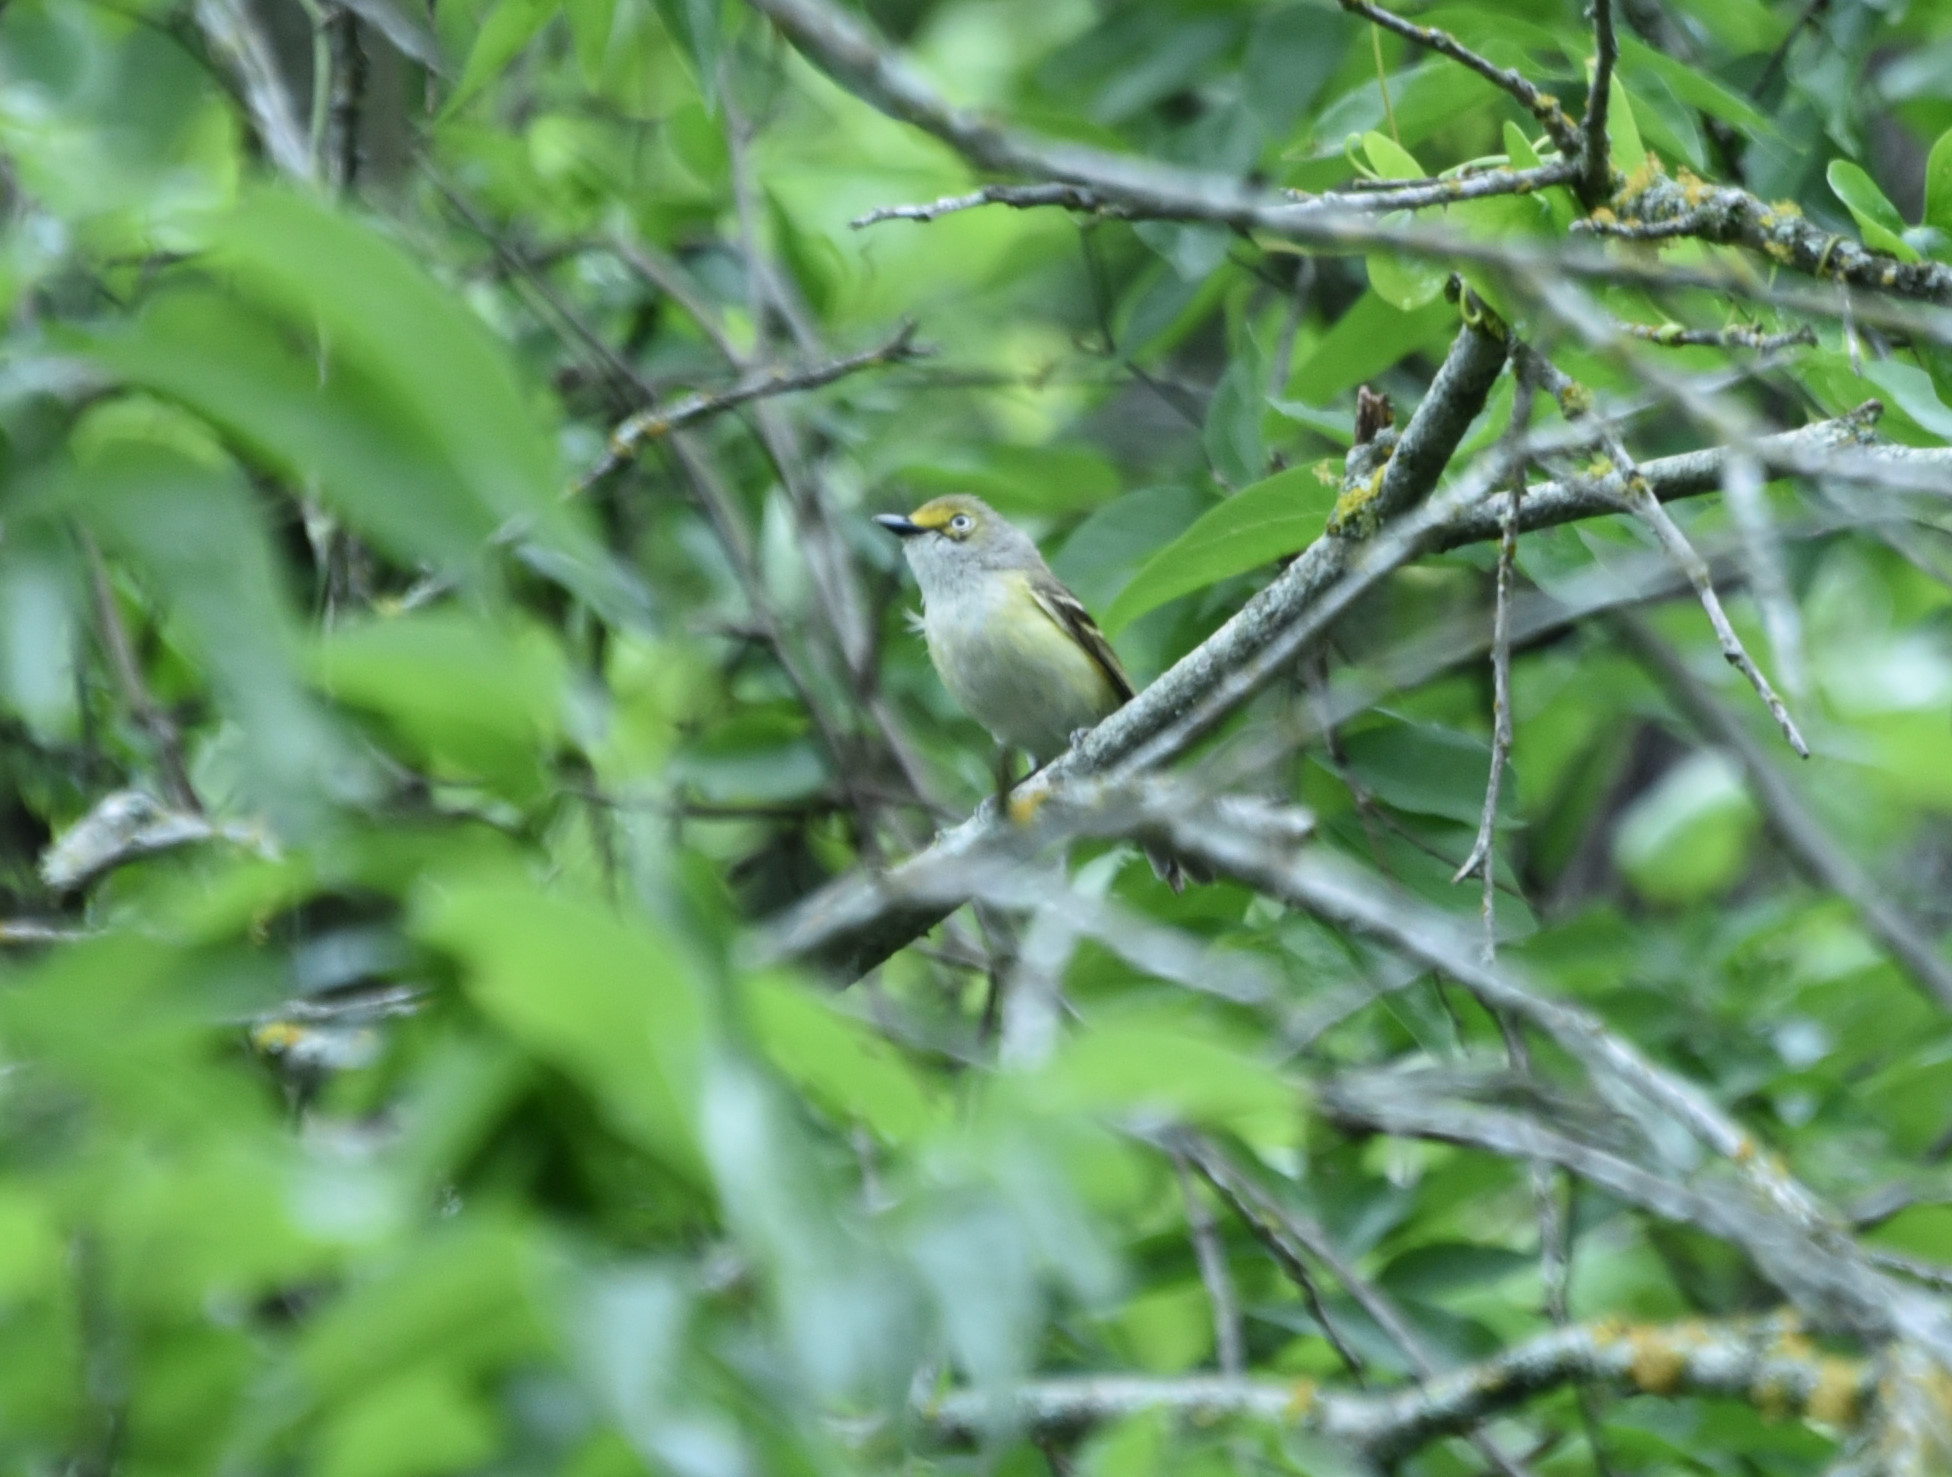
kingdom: Animalia
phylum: Chordata
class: Aves
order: Passeriformes
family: Vireonidae
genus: Vireo
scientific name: Vireo griseus
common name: White-eyed vireo
